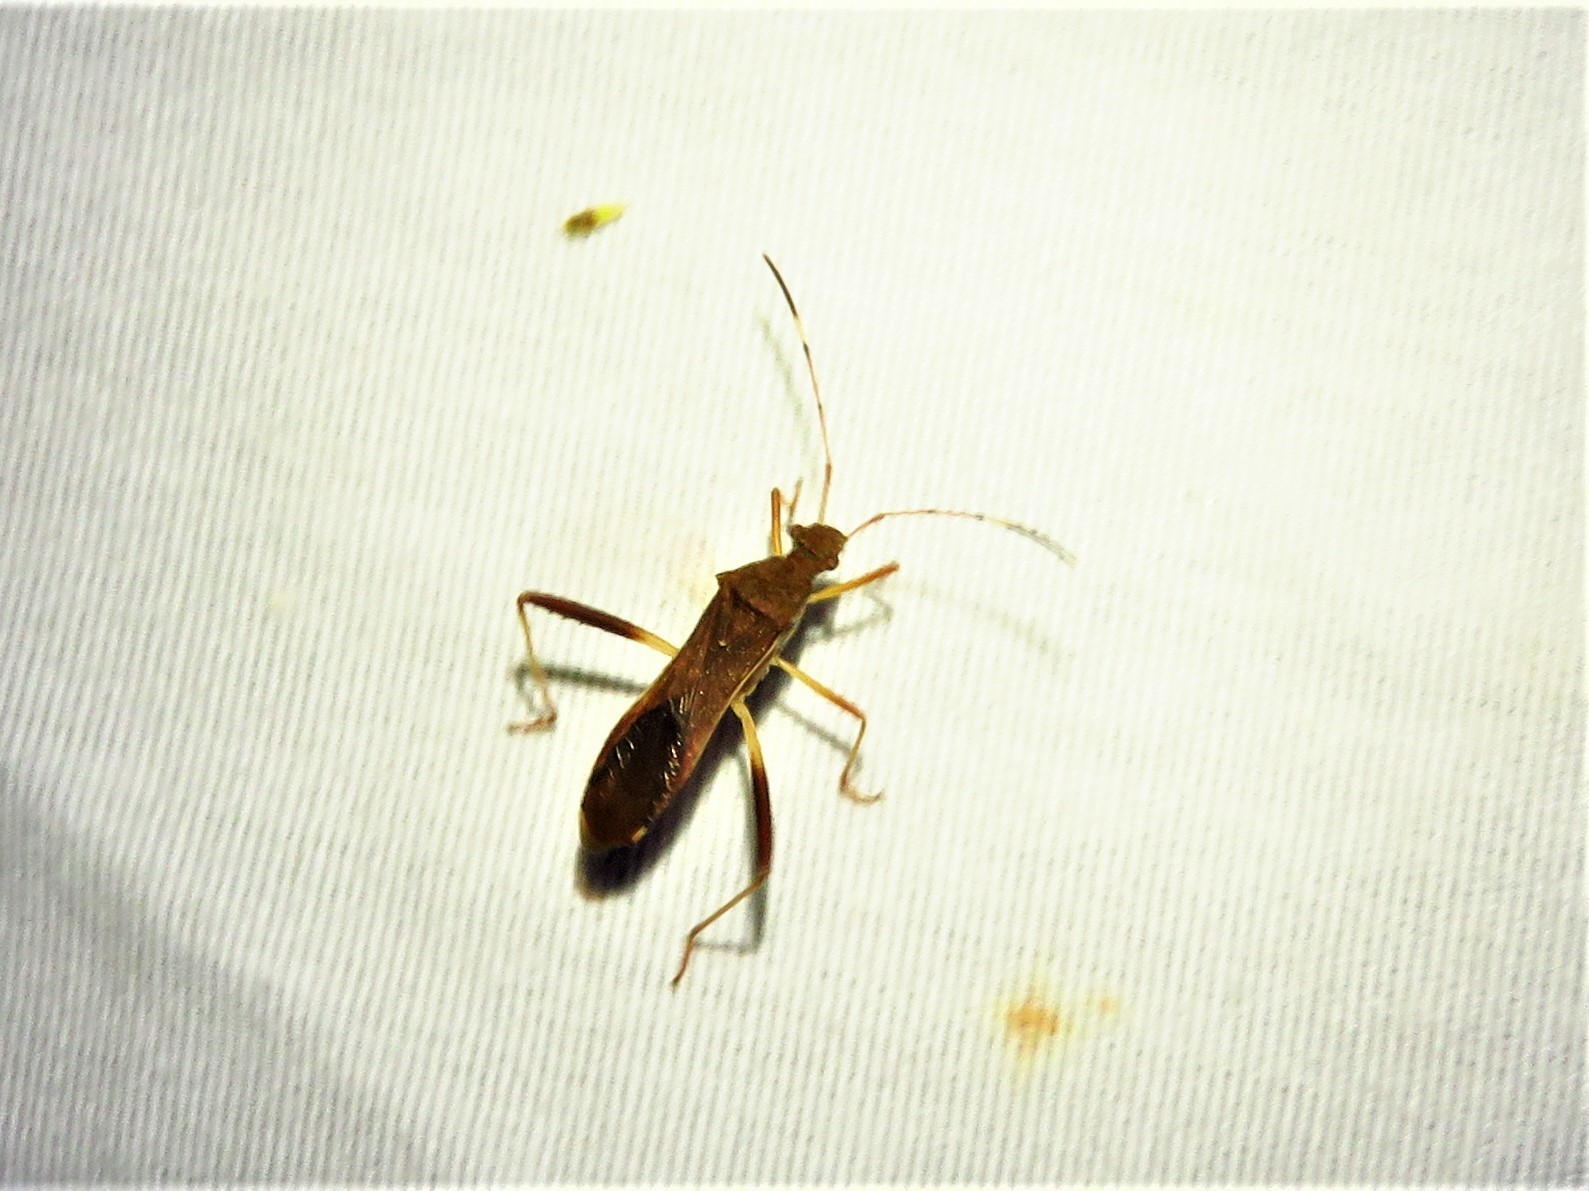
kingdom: Animalia
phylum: Arthropoda
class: Insecta
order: Hemiptera
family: Alydidae
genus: Megalotomus
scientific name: Megalotomus quinquespinosus
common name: Lupine bug
